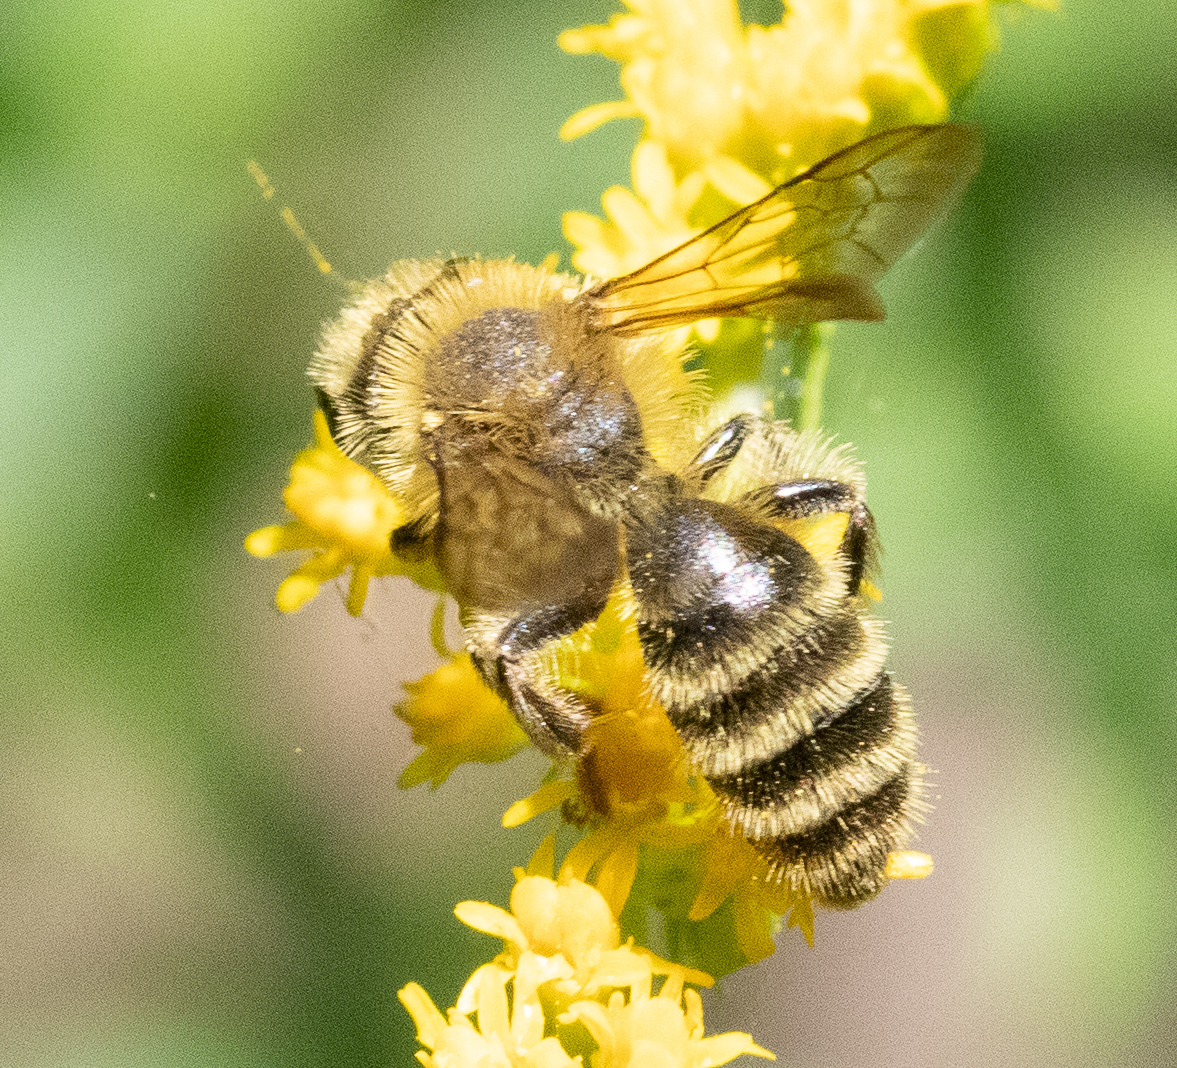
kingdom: Animalia
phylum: Arthropoda
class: Insecta
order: Hymenoptera
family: Andrenidae
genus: Andrena
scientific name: Andrena hirticincta
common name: Hairy-banded mining bee
